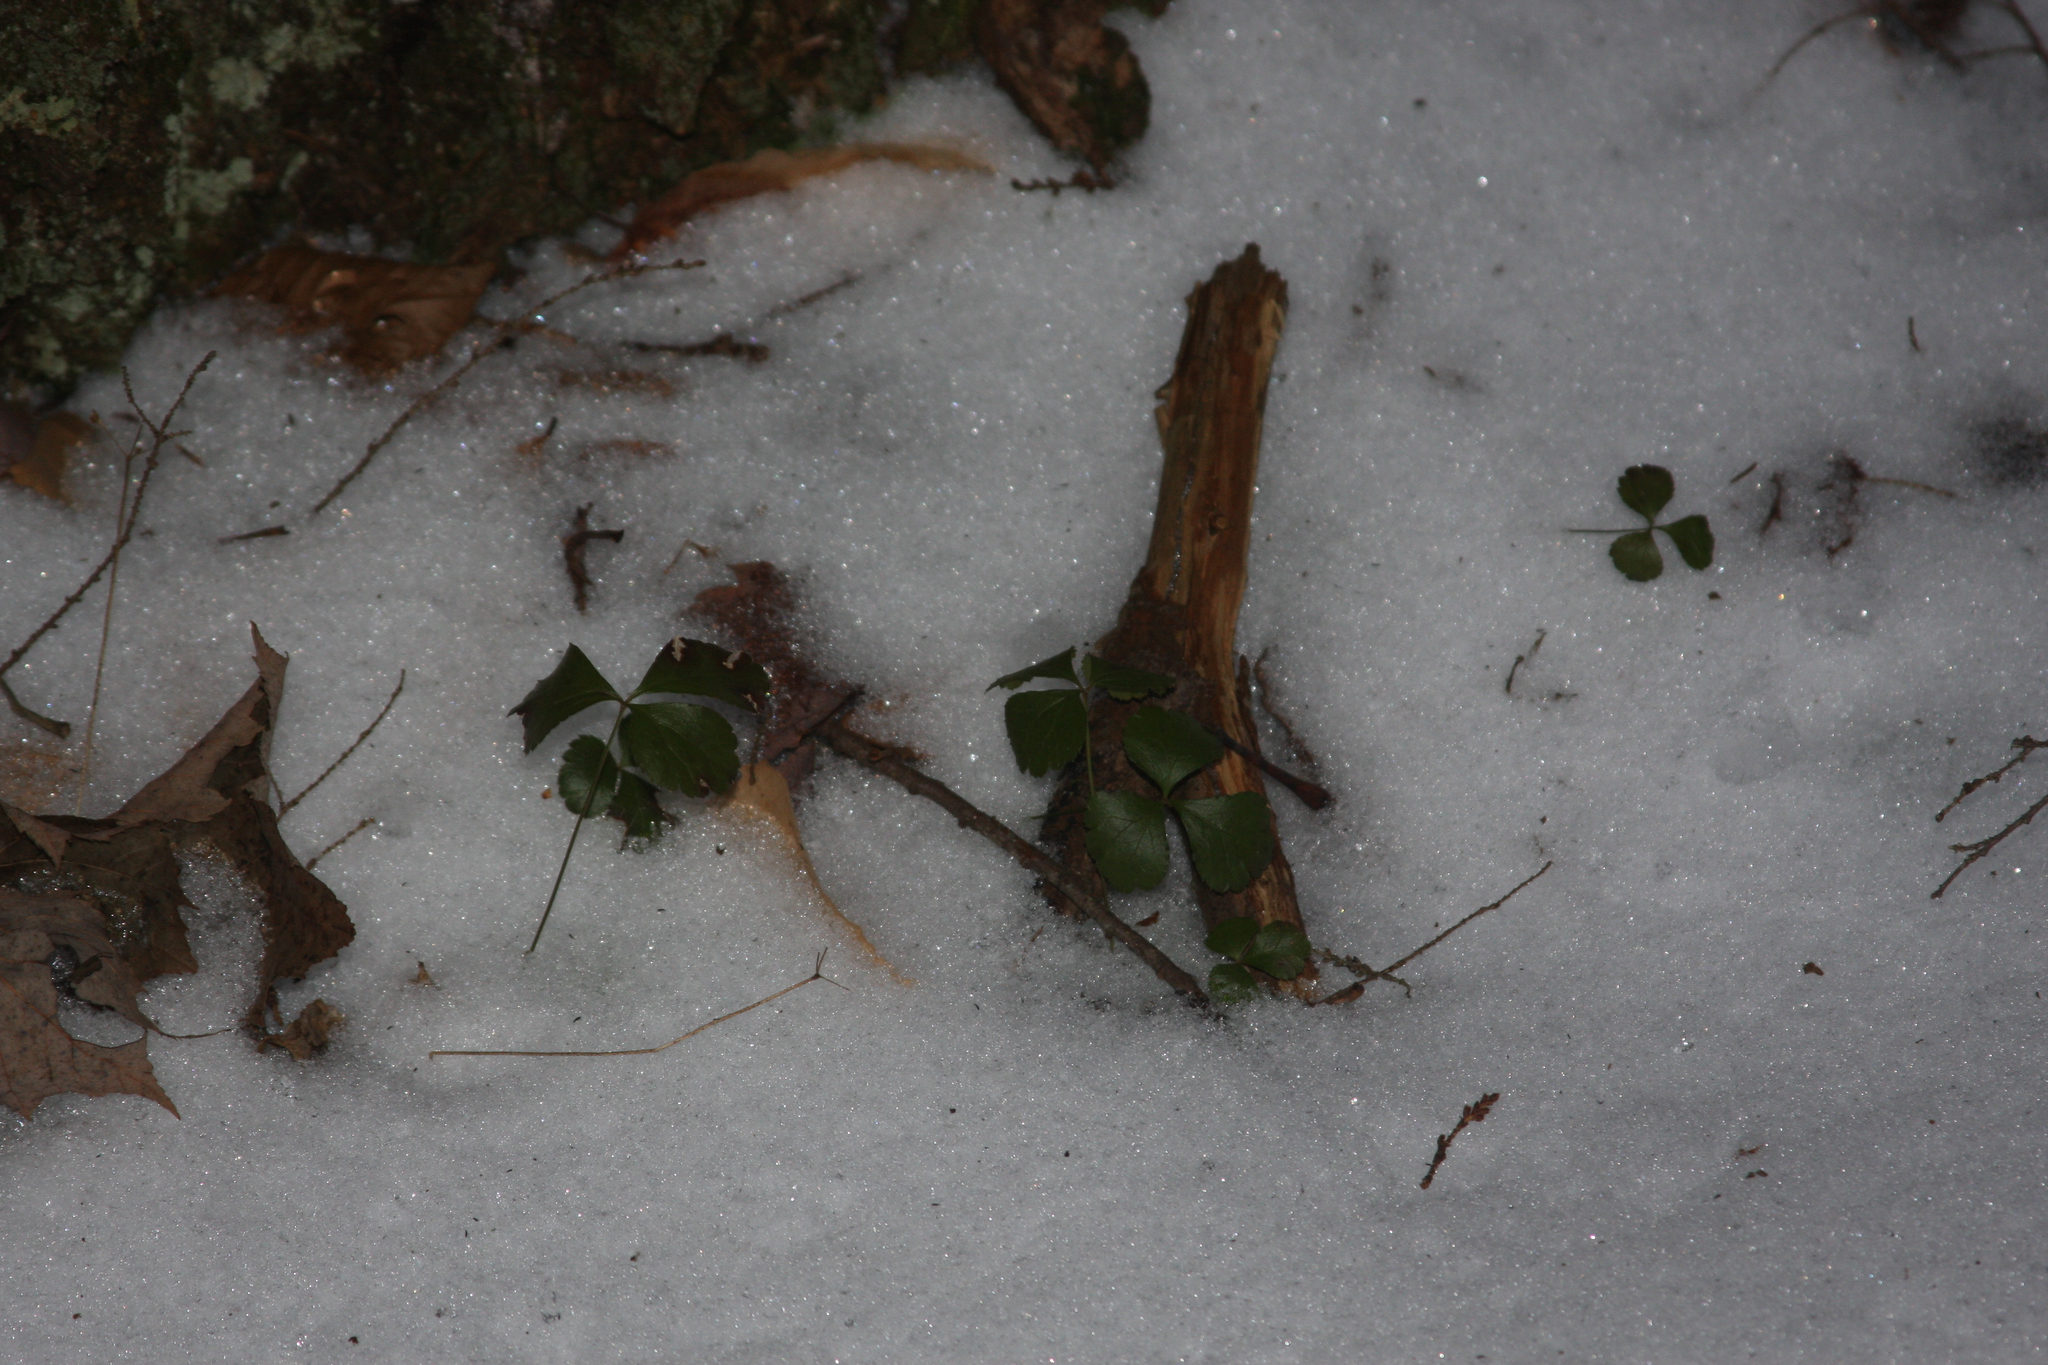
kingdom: Plantae
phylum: Tracheophyta
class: Magnoliopsida
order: Ranunculales
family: Ranunculaceae
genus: Coptis
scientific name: Coptis trifolia
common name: Canker-root
